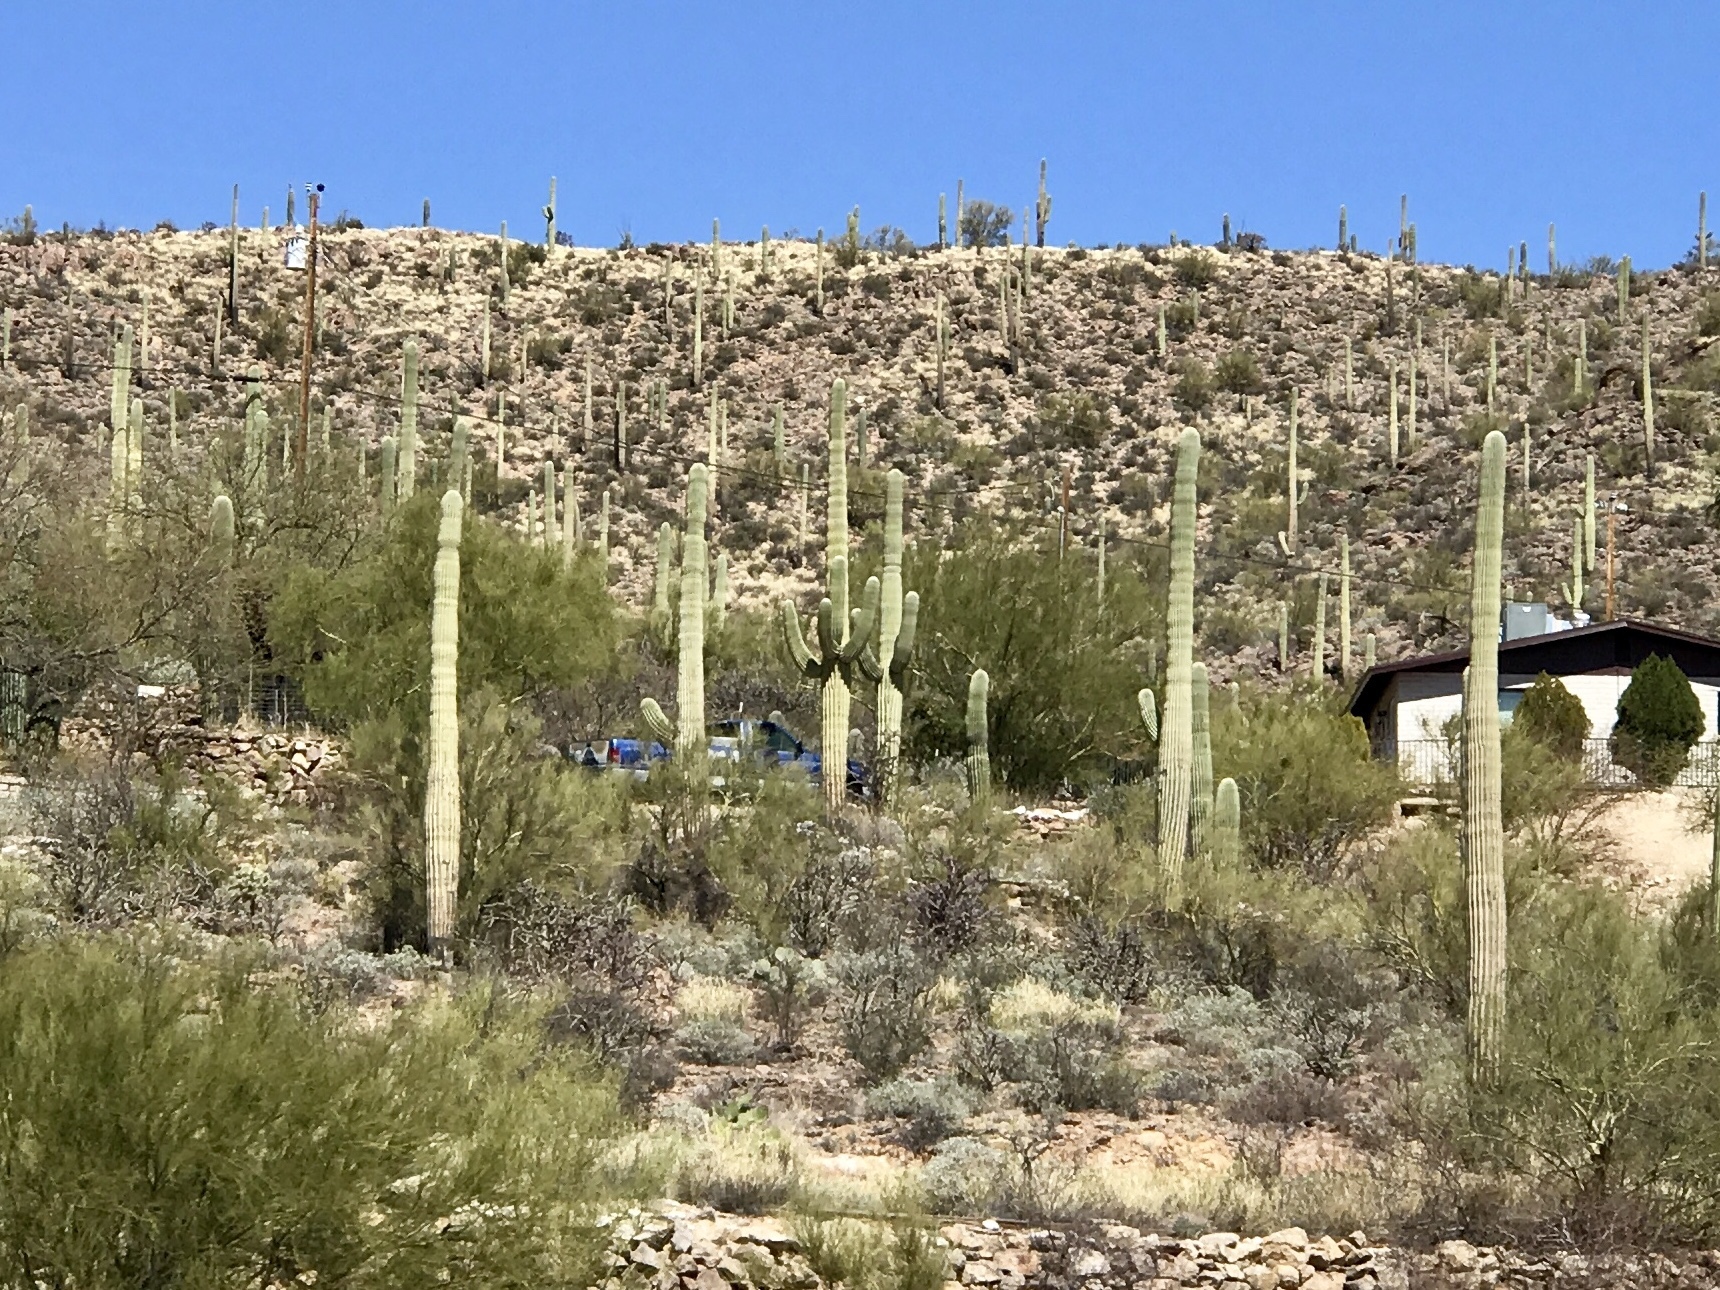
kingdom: Plantae
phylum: Tracheophyta
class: Magnoliopsida
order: Caryophyllales
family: Cactaceae
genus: Carnegiea
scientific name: Carnegiea gigantea
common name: Saguaro
